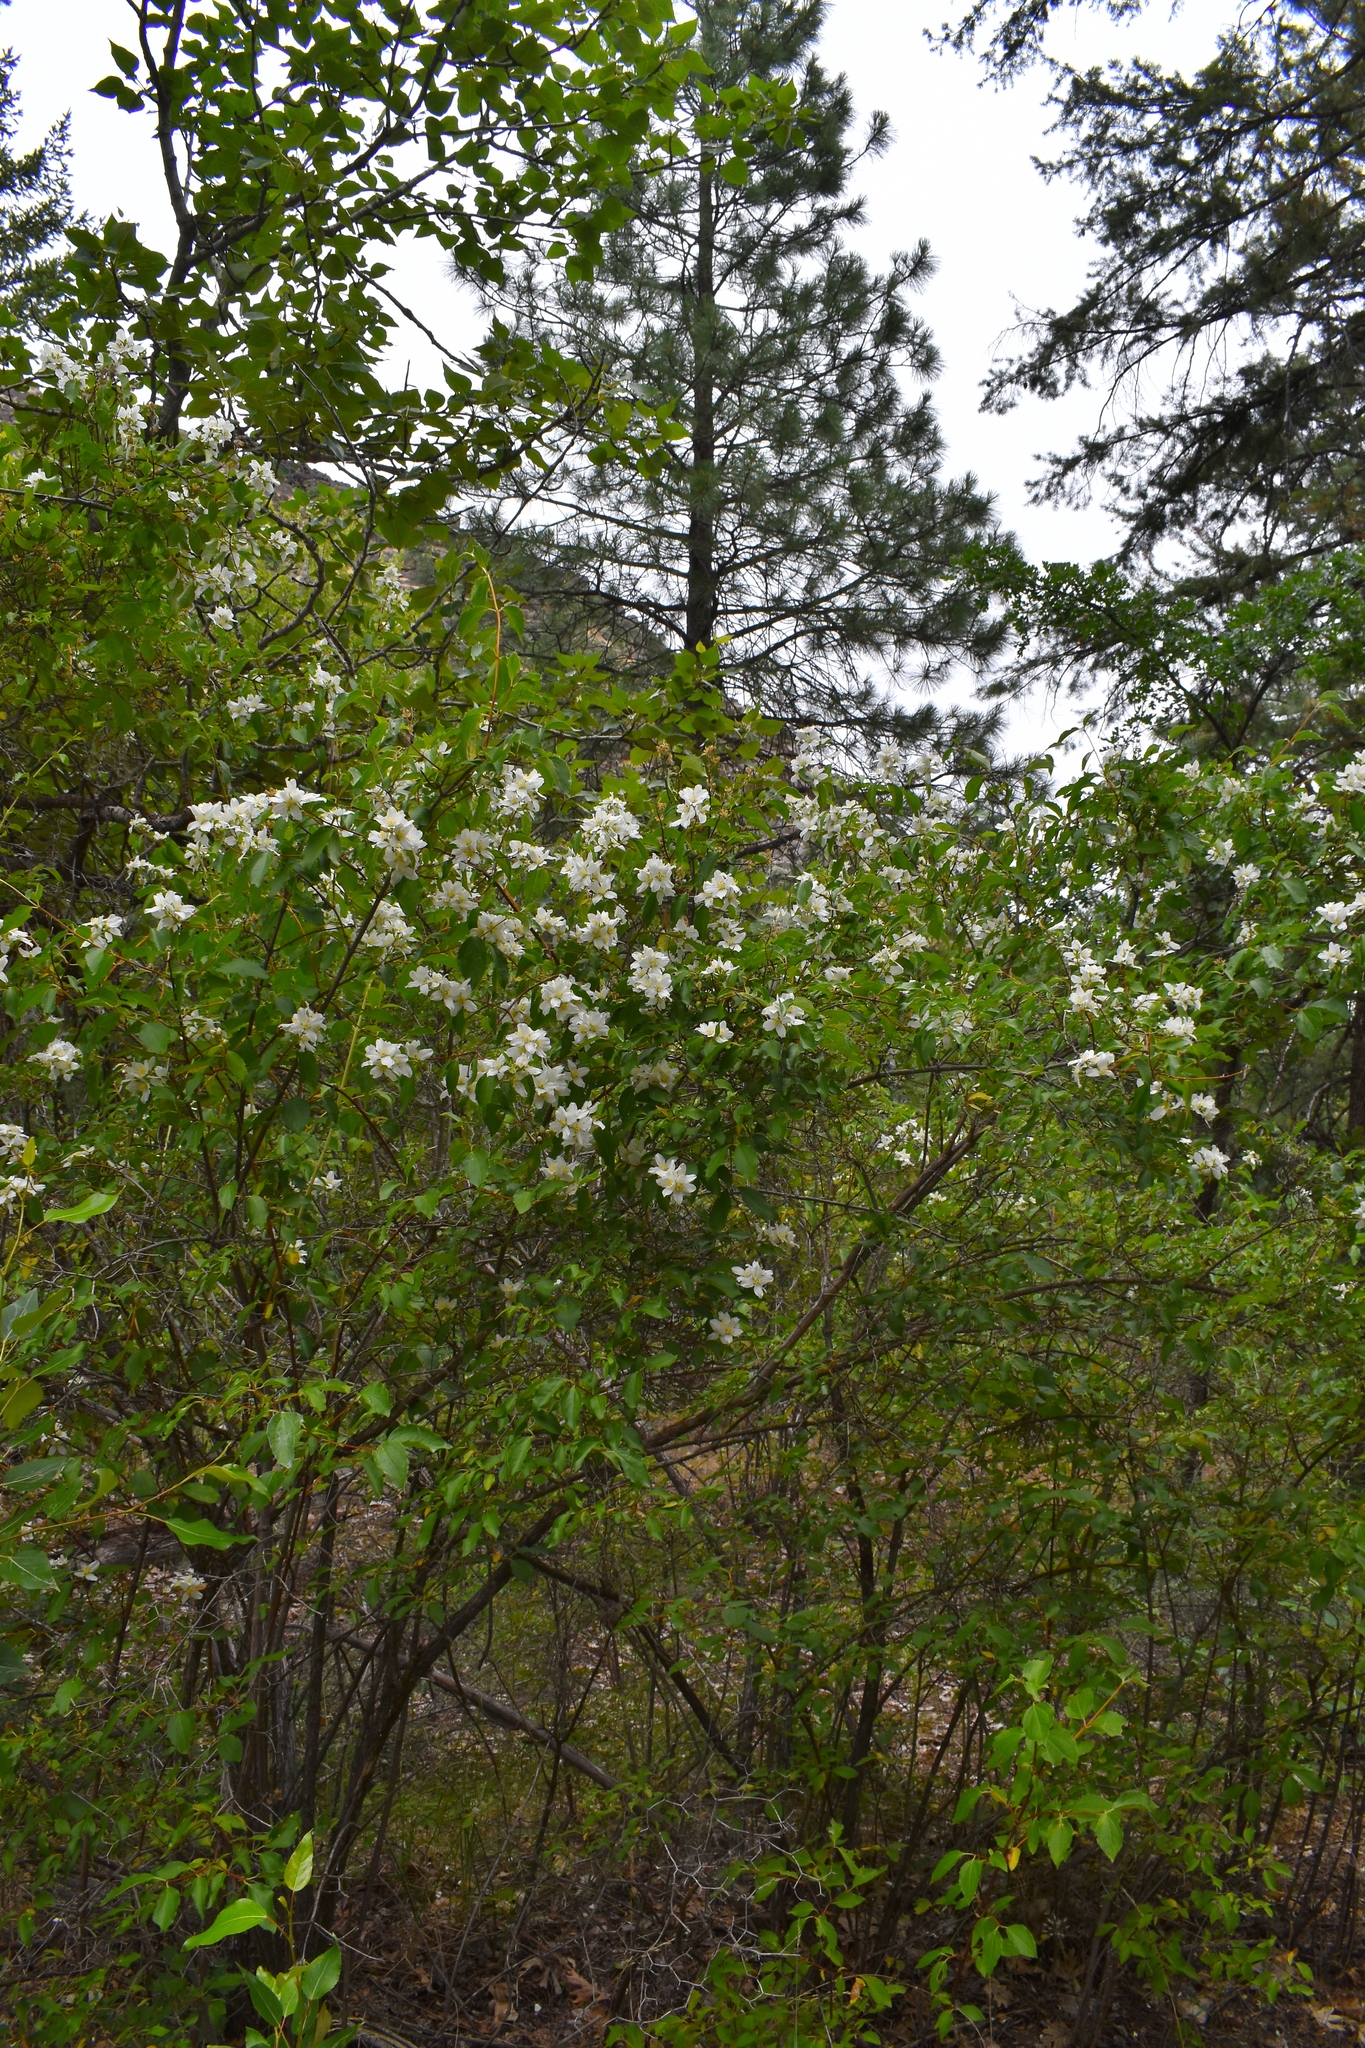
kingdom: Plantae
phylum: Tracheophyta
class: Magnoliopsida
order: Cornales
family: Hydrangeaceae
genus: Philadelphus
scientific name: Philadelphus lewisii
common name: Lewis's mock orange
